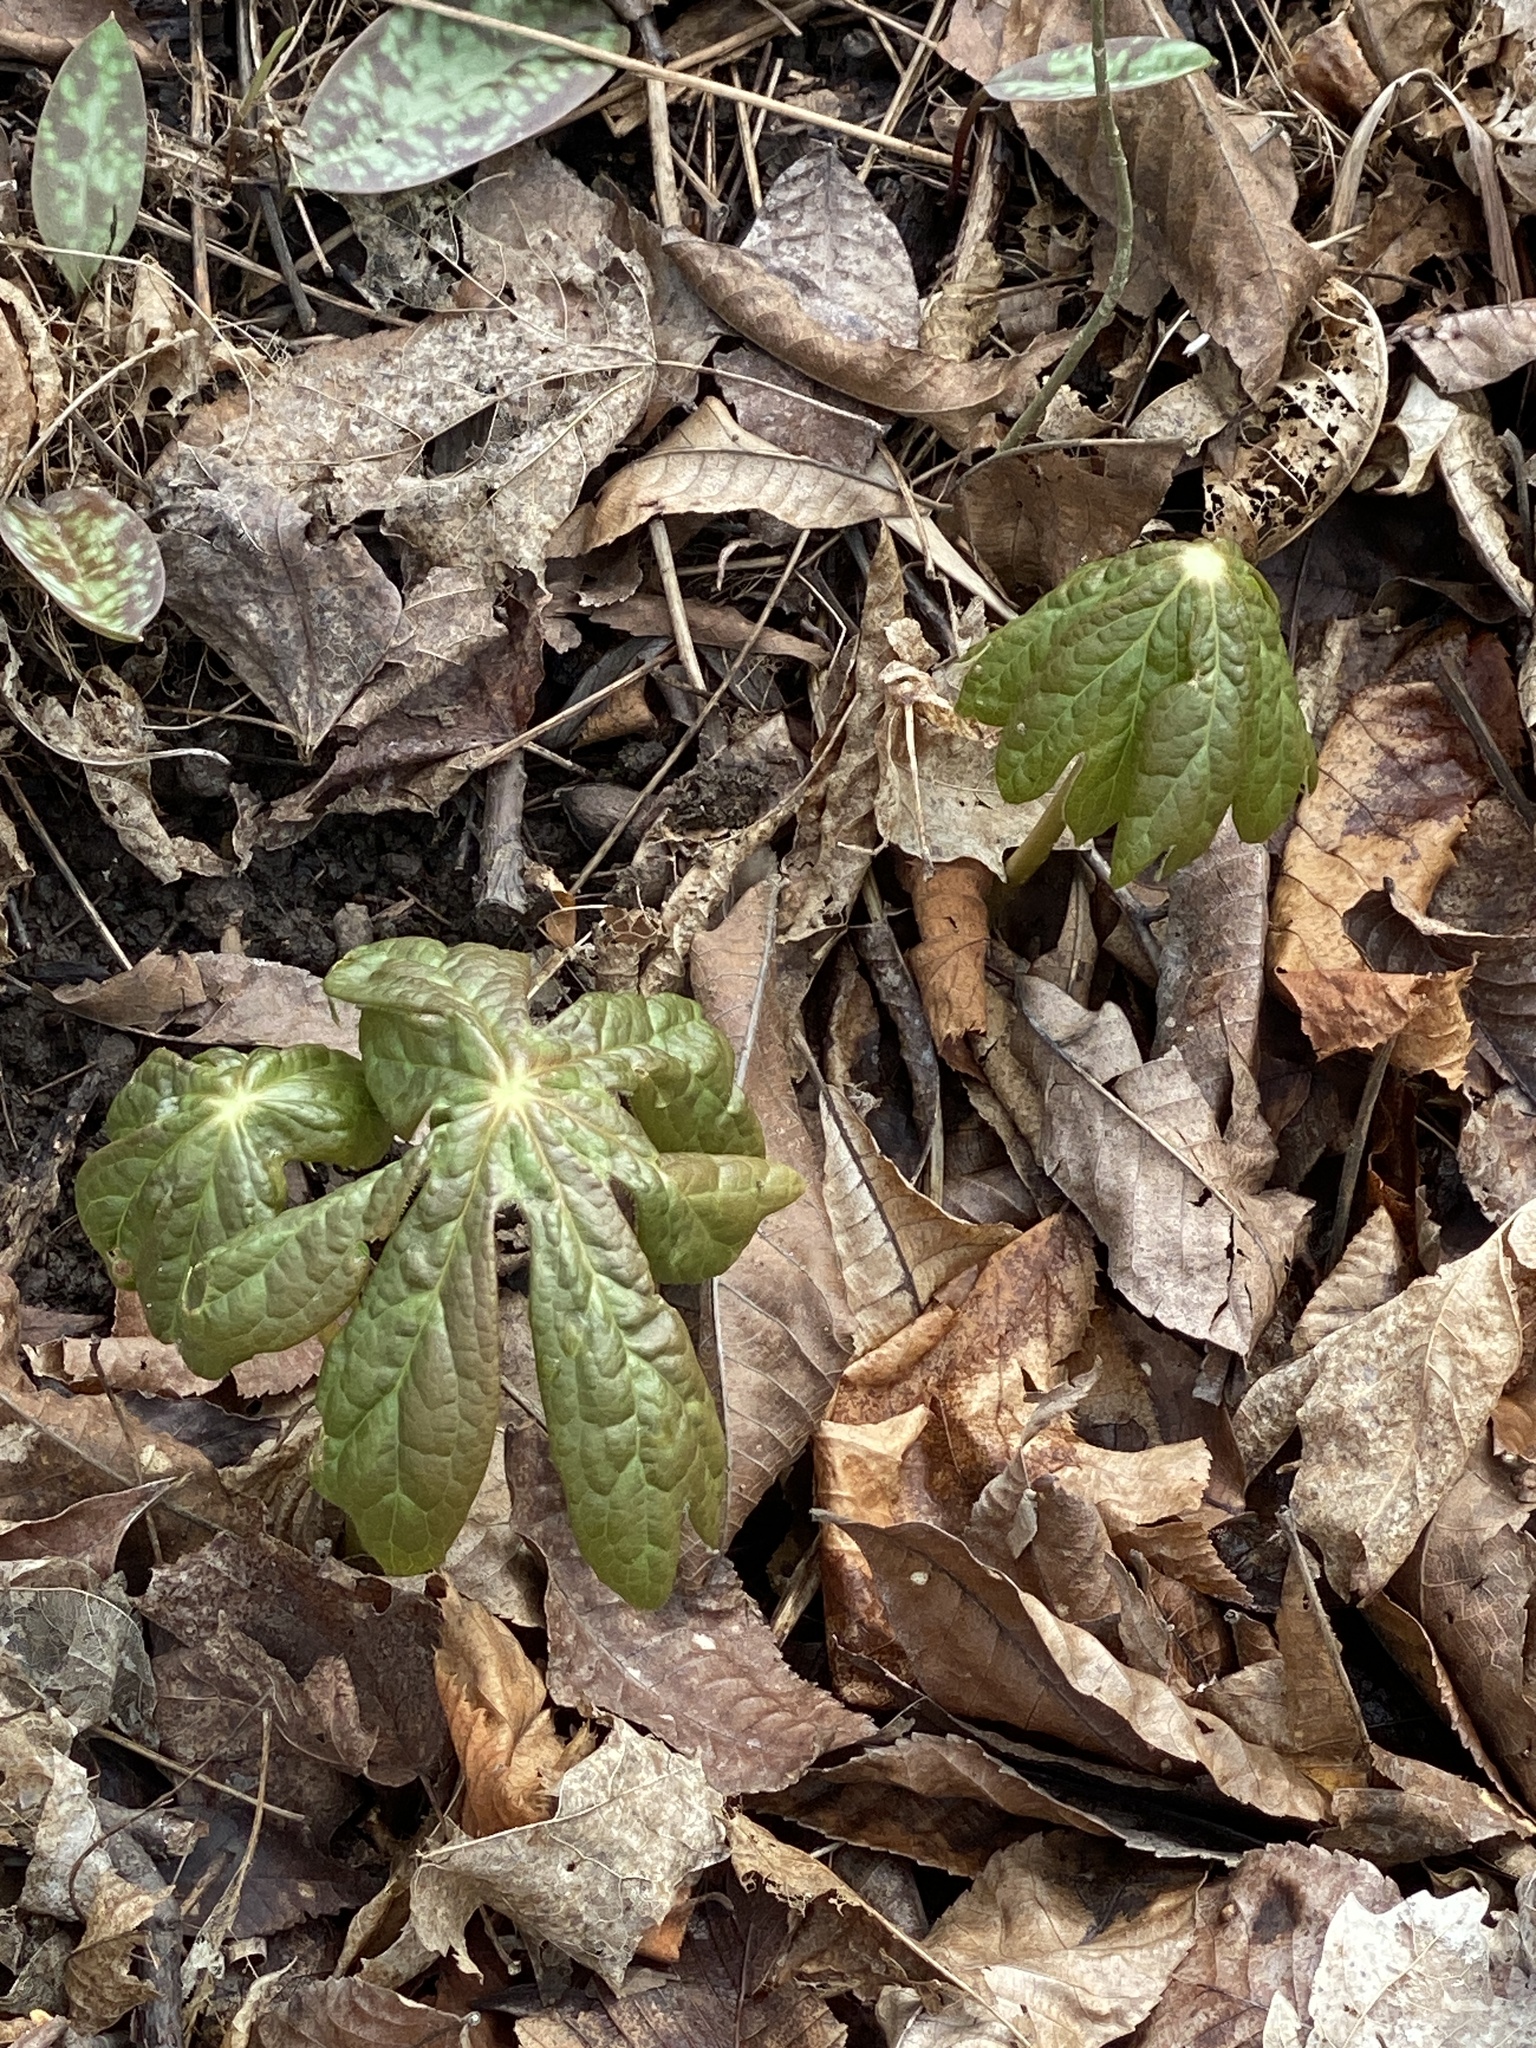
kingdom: Plantae
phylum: Tracheophyta
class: Magnoliopsida
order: Ranunculales
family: Berberidaceae
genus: Podophyllum
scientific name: Podophyllum peltatum
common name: Wild mandrake
